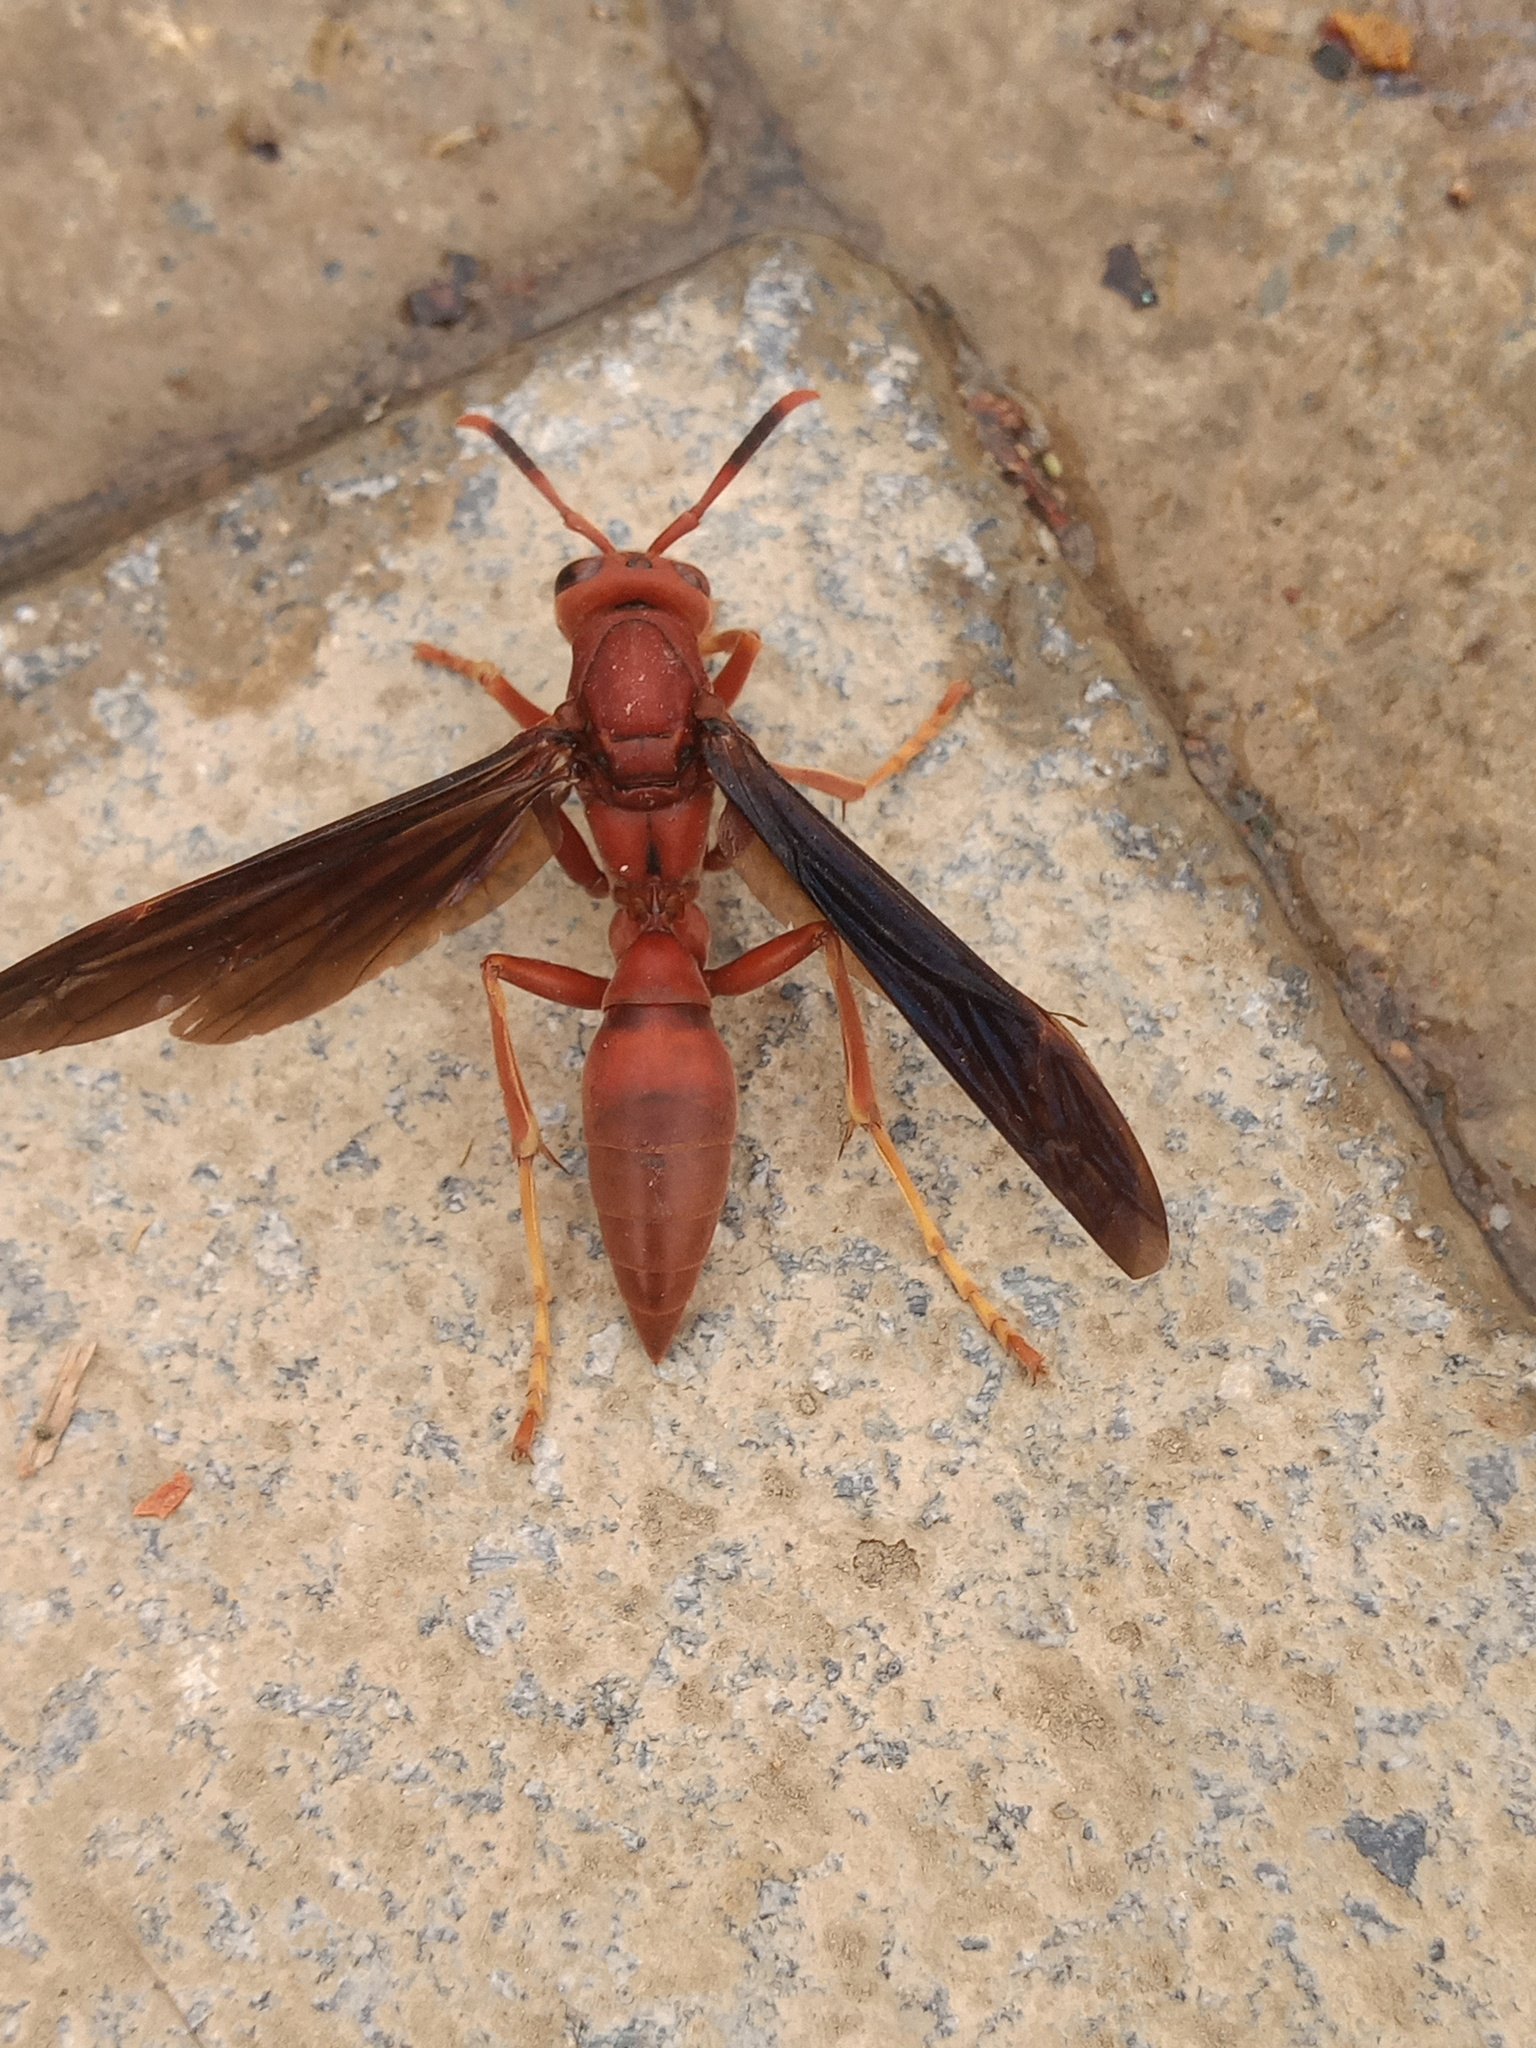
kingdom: Animalia
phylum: Arthropoda
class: Insecta
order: Hymenoptera
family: Eumenidae
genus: Polistes
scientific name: Polistes canadensis
